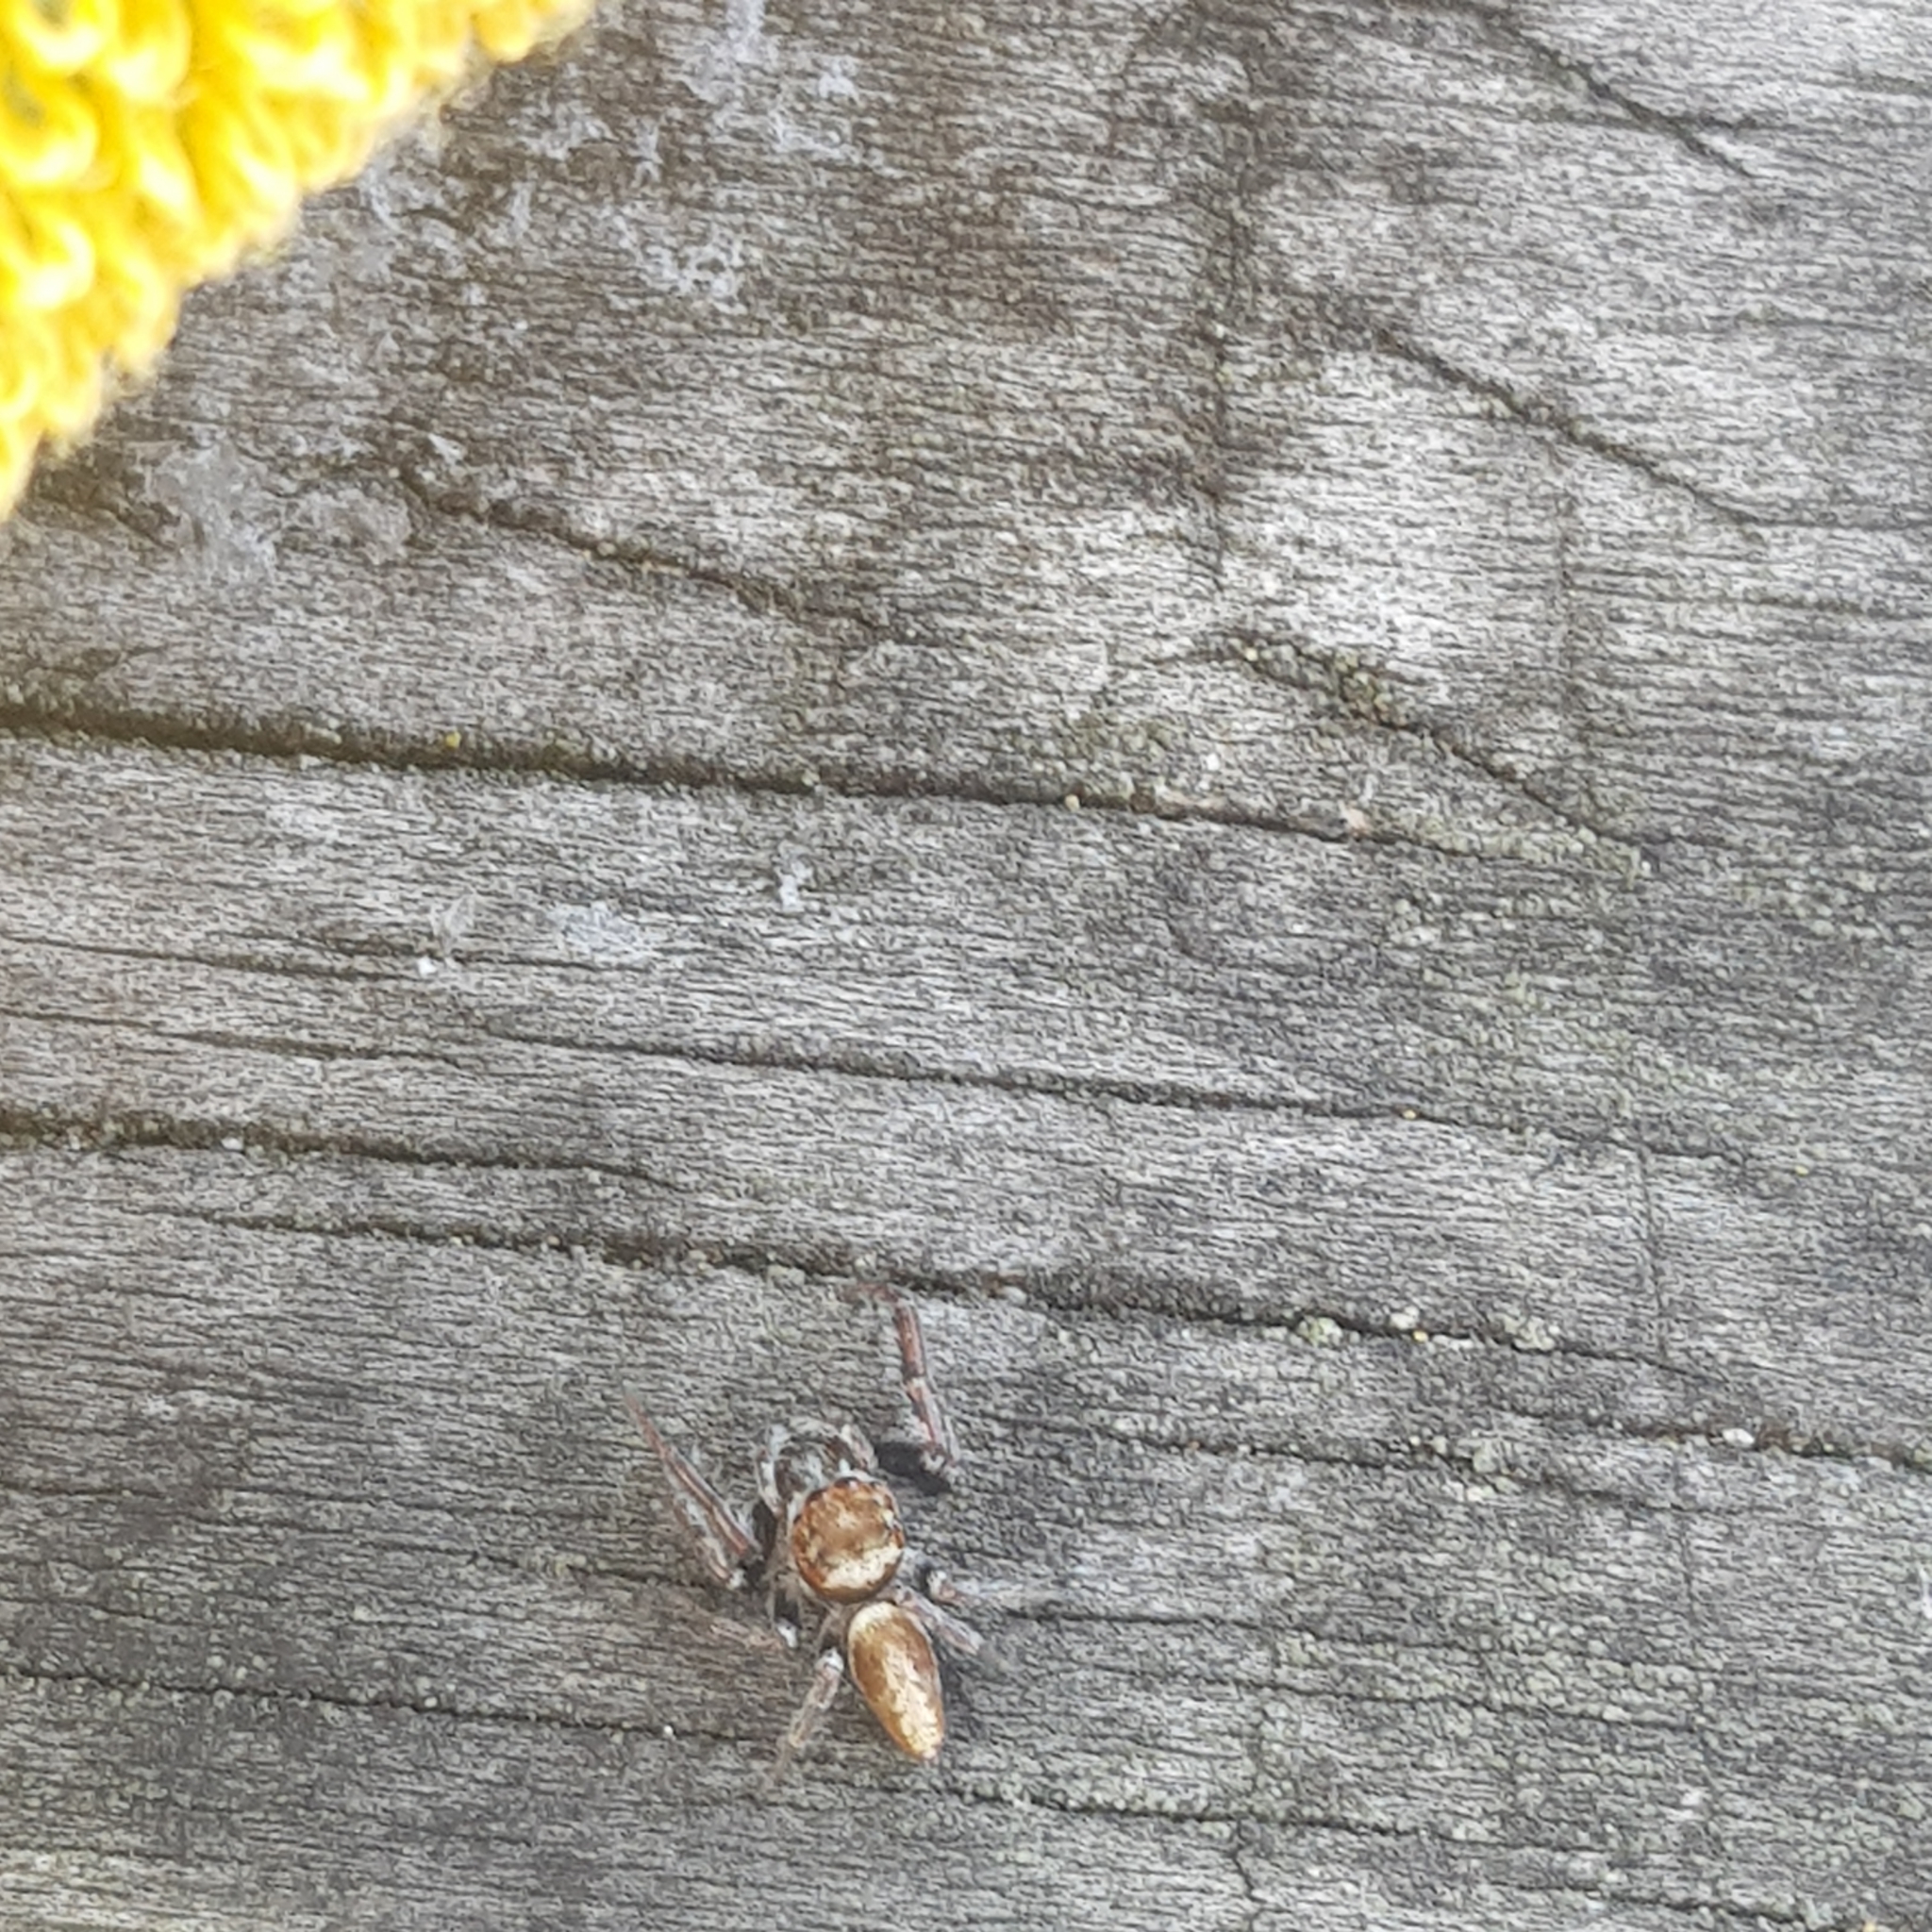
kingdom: Animalia
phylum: Arthropoda
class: Arachnida
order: Araneae
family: Salticidae
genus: Opisthoncus
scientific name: Opisthoncus polyphemus
